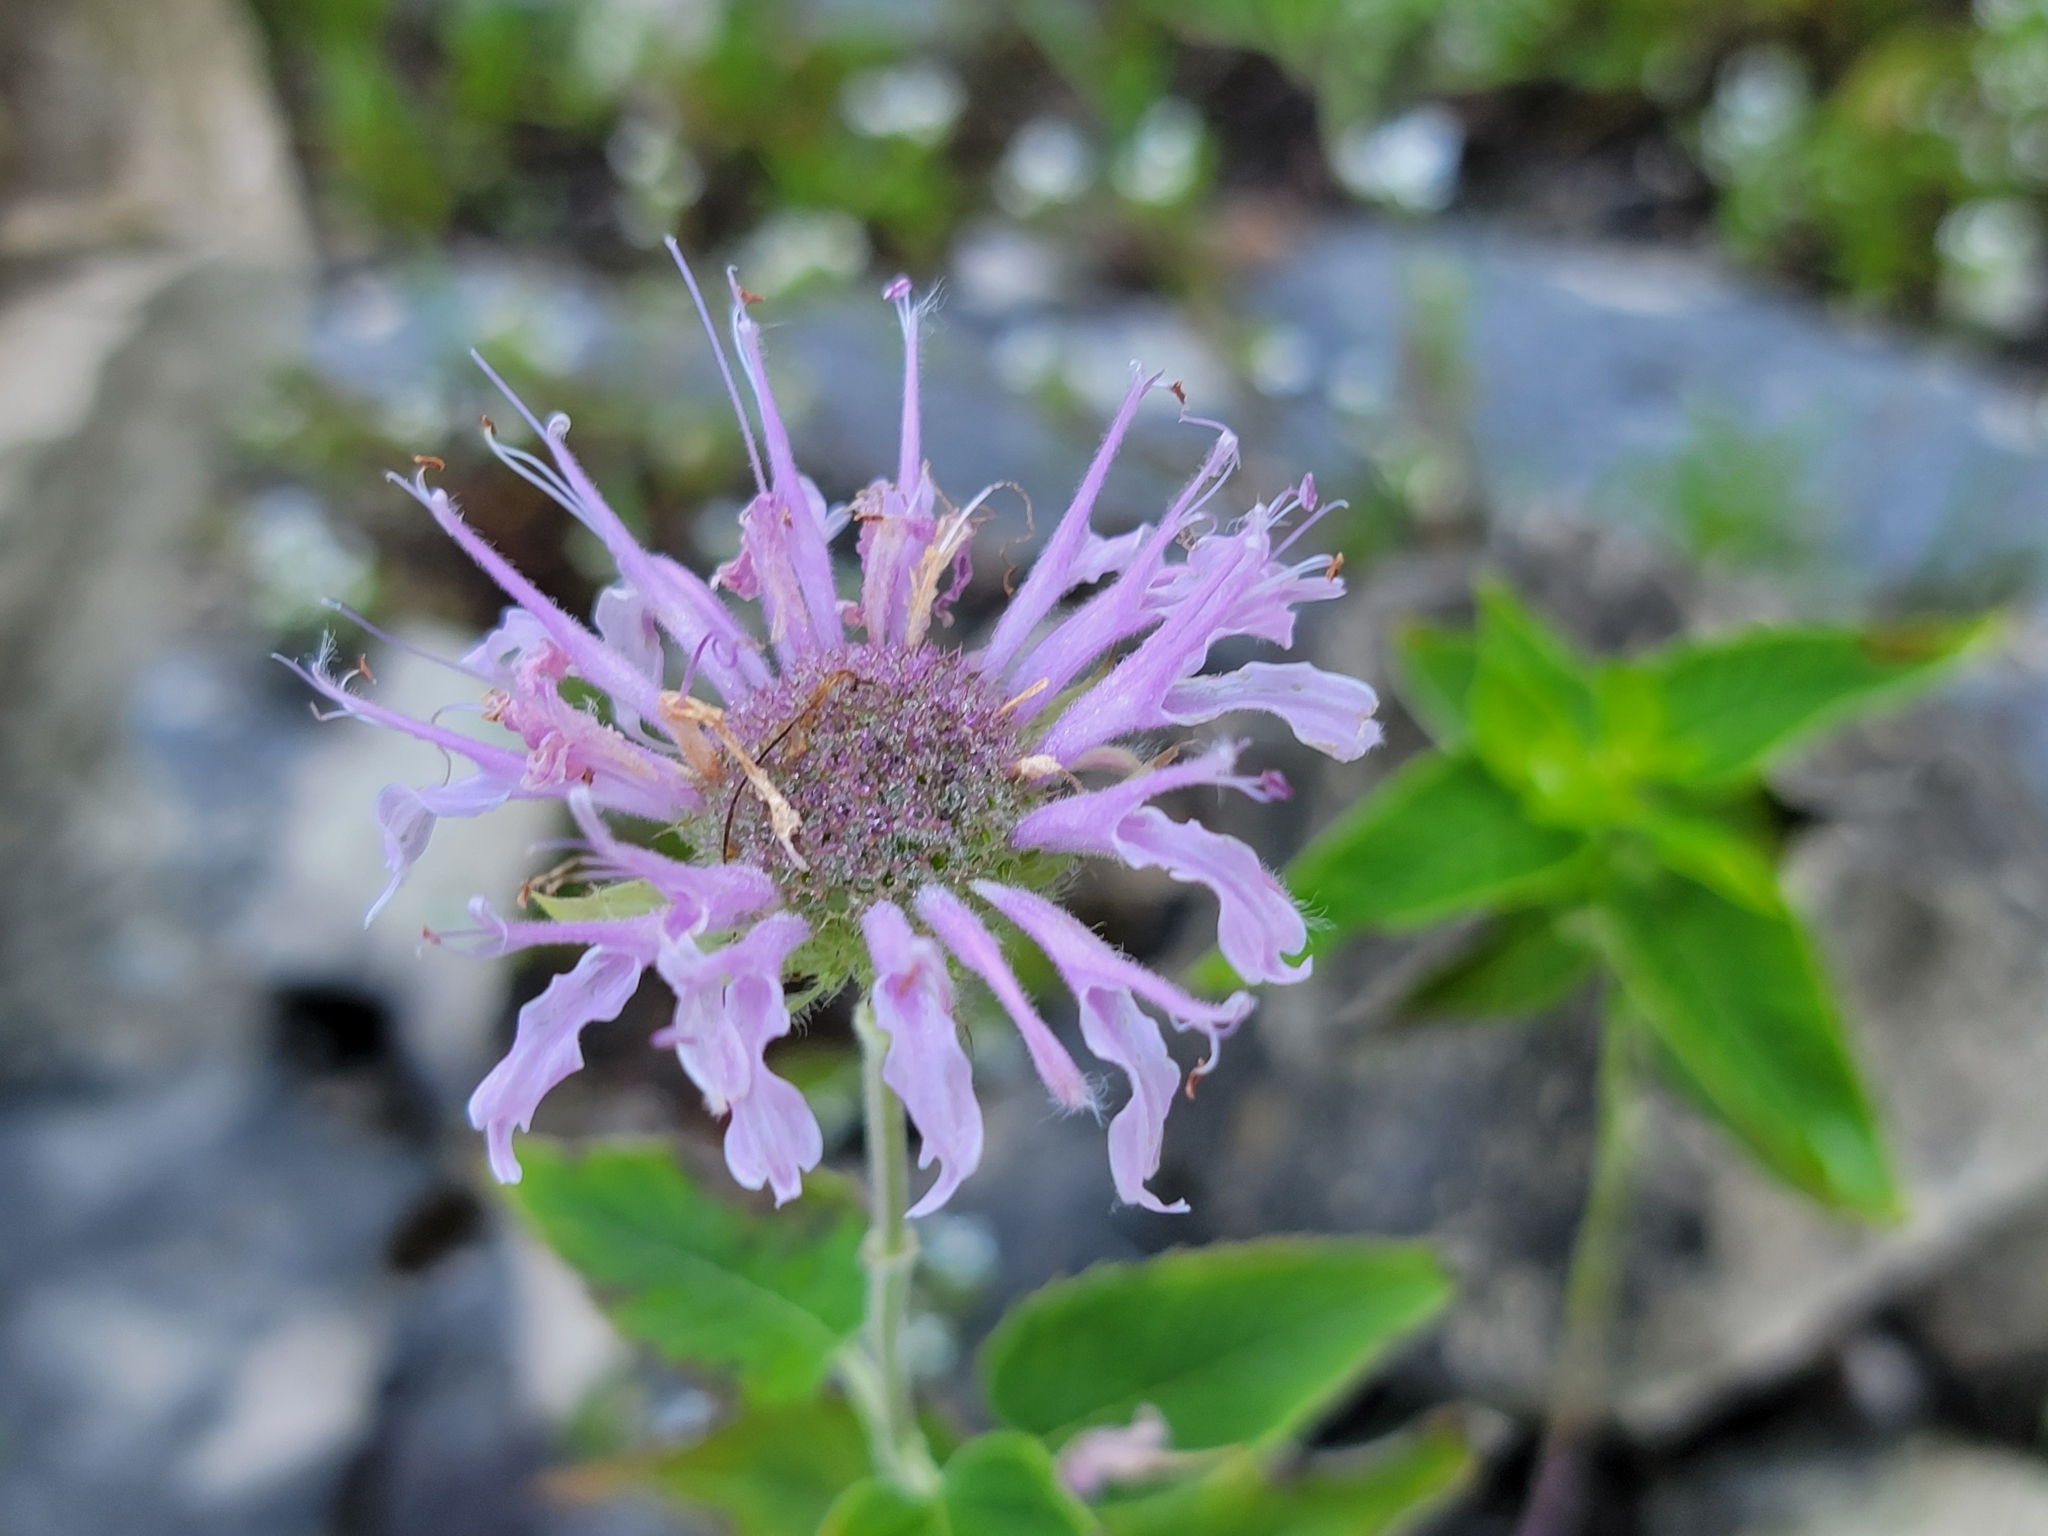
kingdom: Plantae
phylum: Tracheophyta
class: Magnoliopsida
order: Lamiales
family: Lamiaceae
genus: Monarda
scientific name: Monarda fistulosa
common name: Purple beebalm
